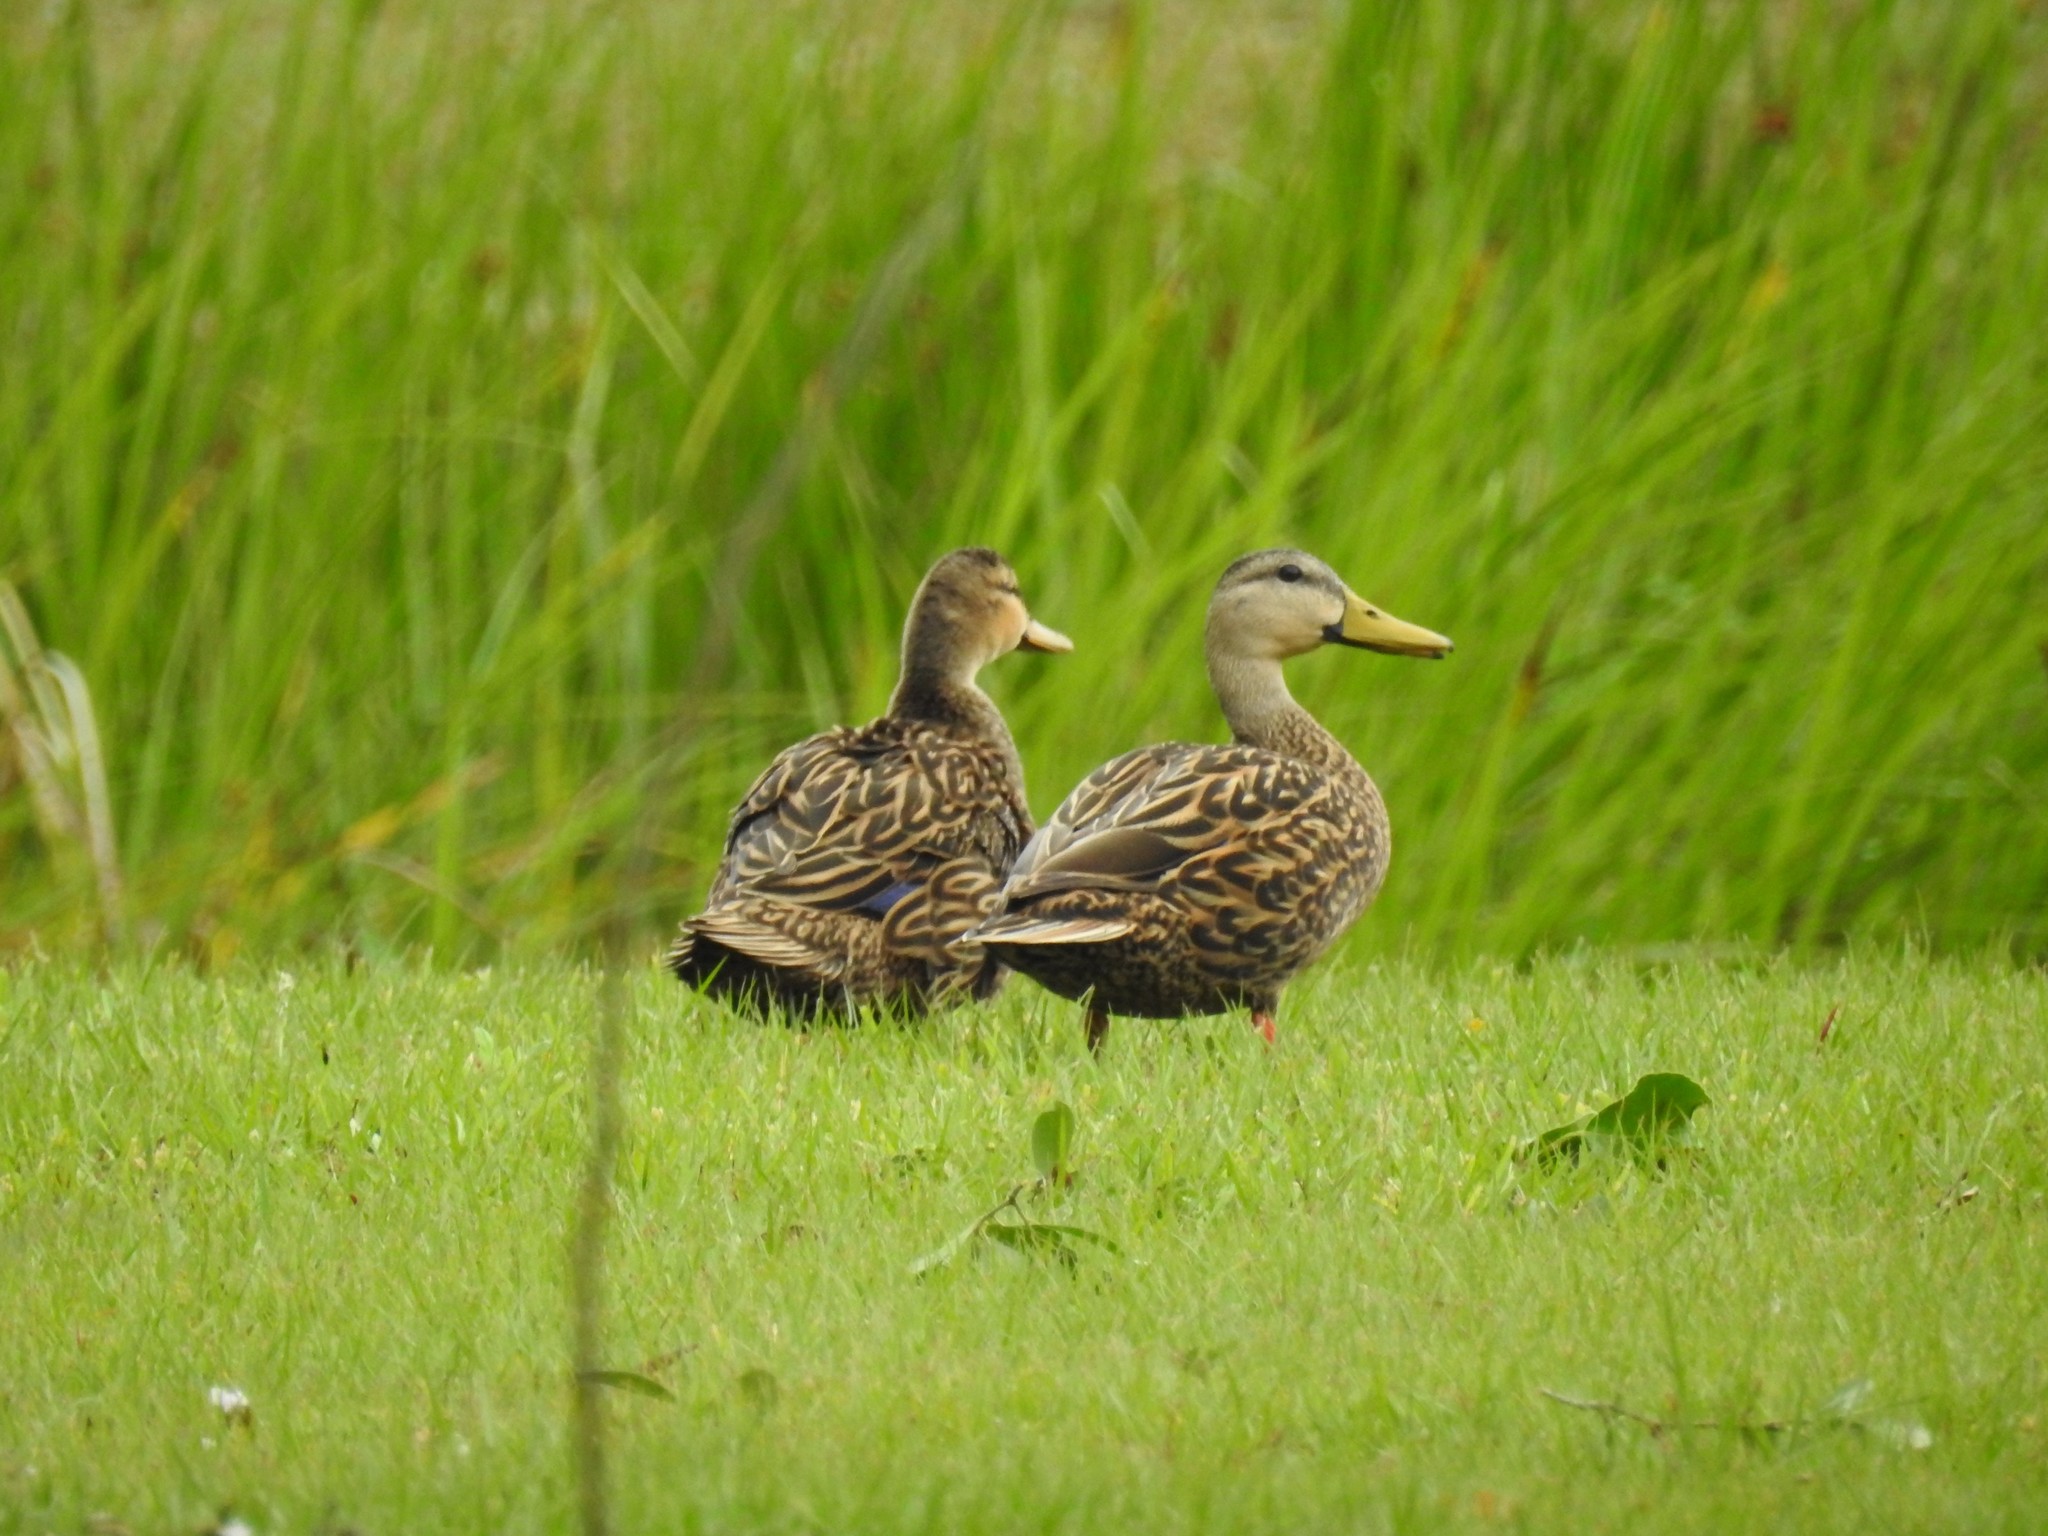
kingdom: Animalia
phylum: Chordata
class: Aves
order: Anseriformes
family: Anatidae
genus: Anas
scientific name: Anas fulvigula
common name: Mottled duck
